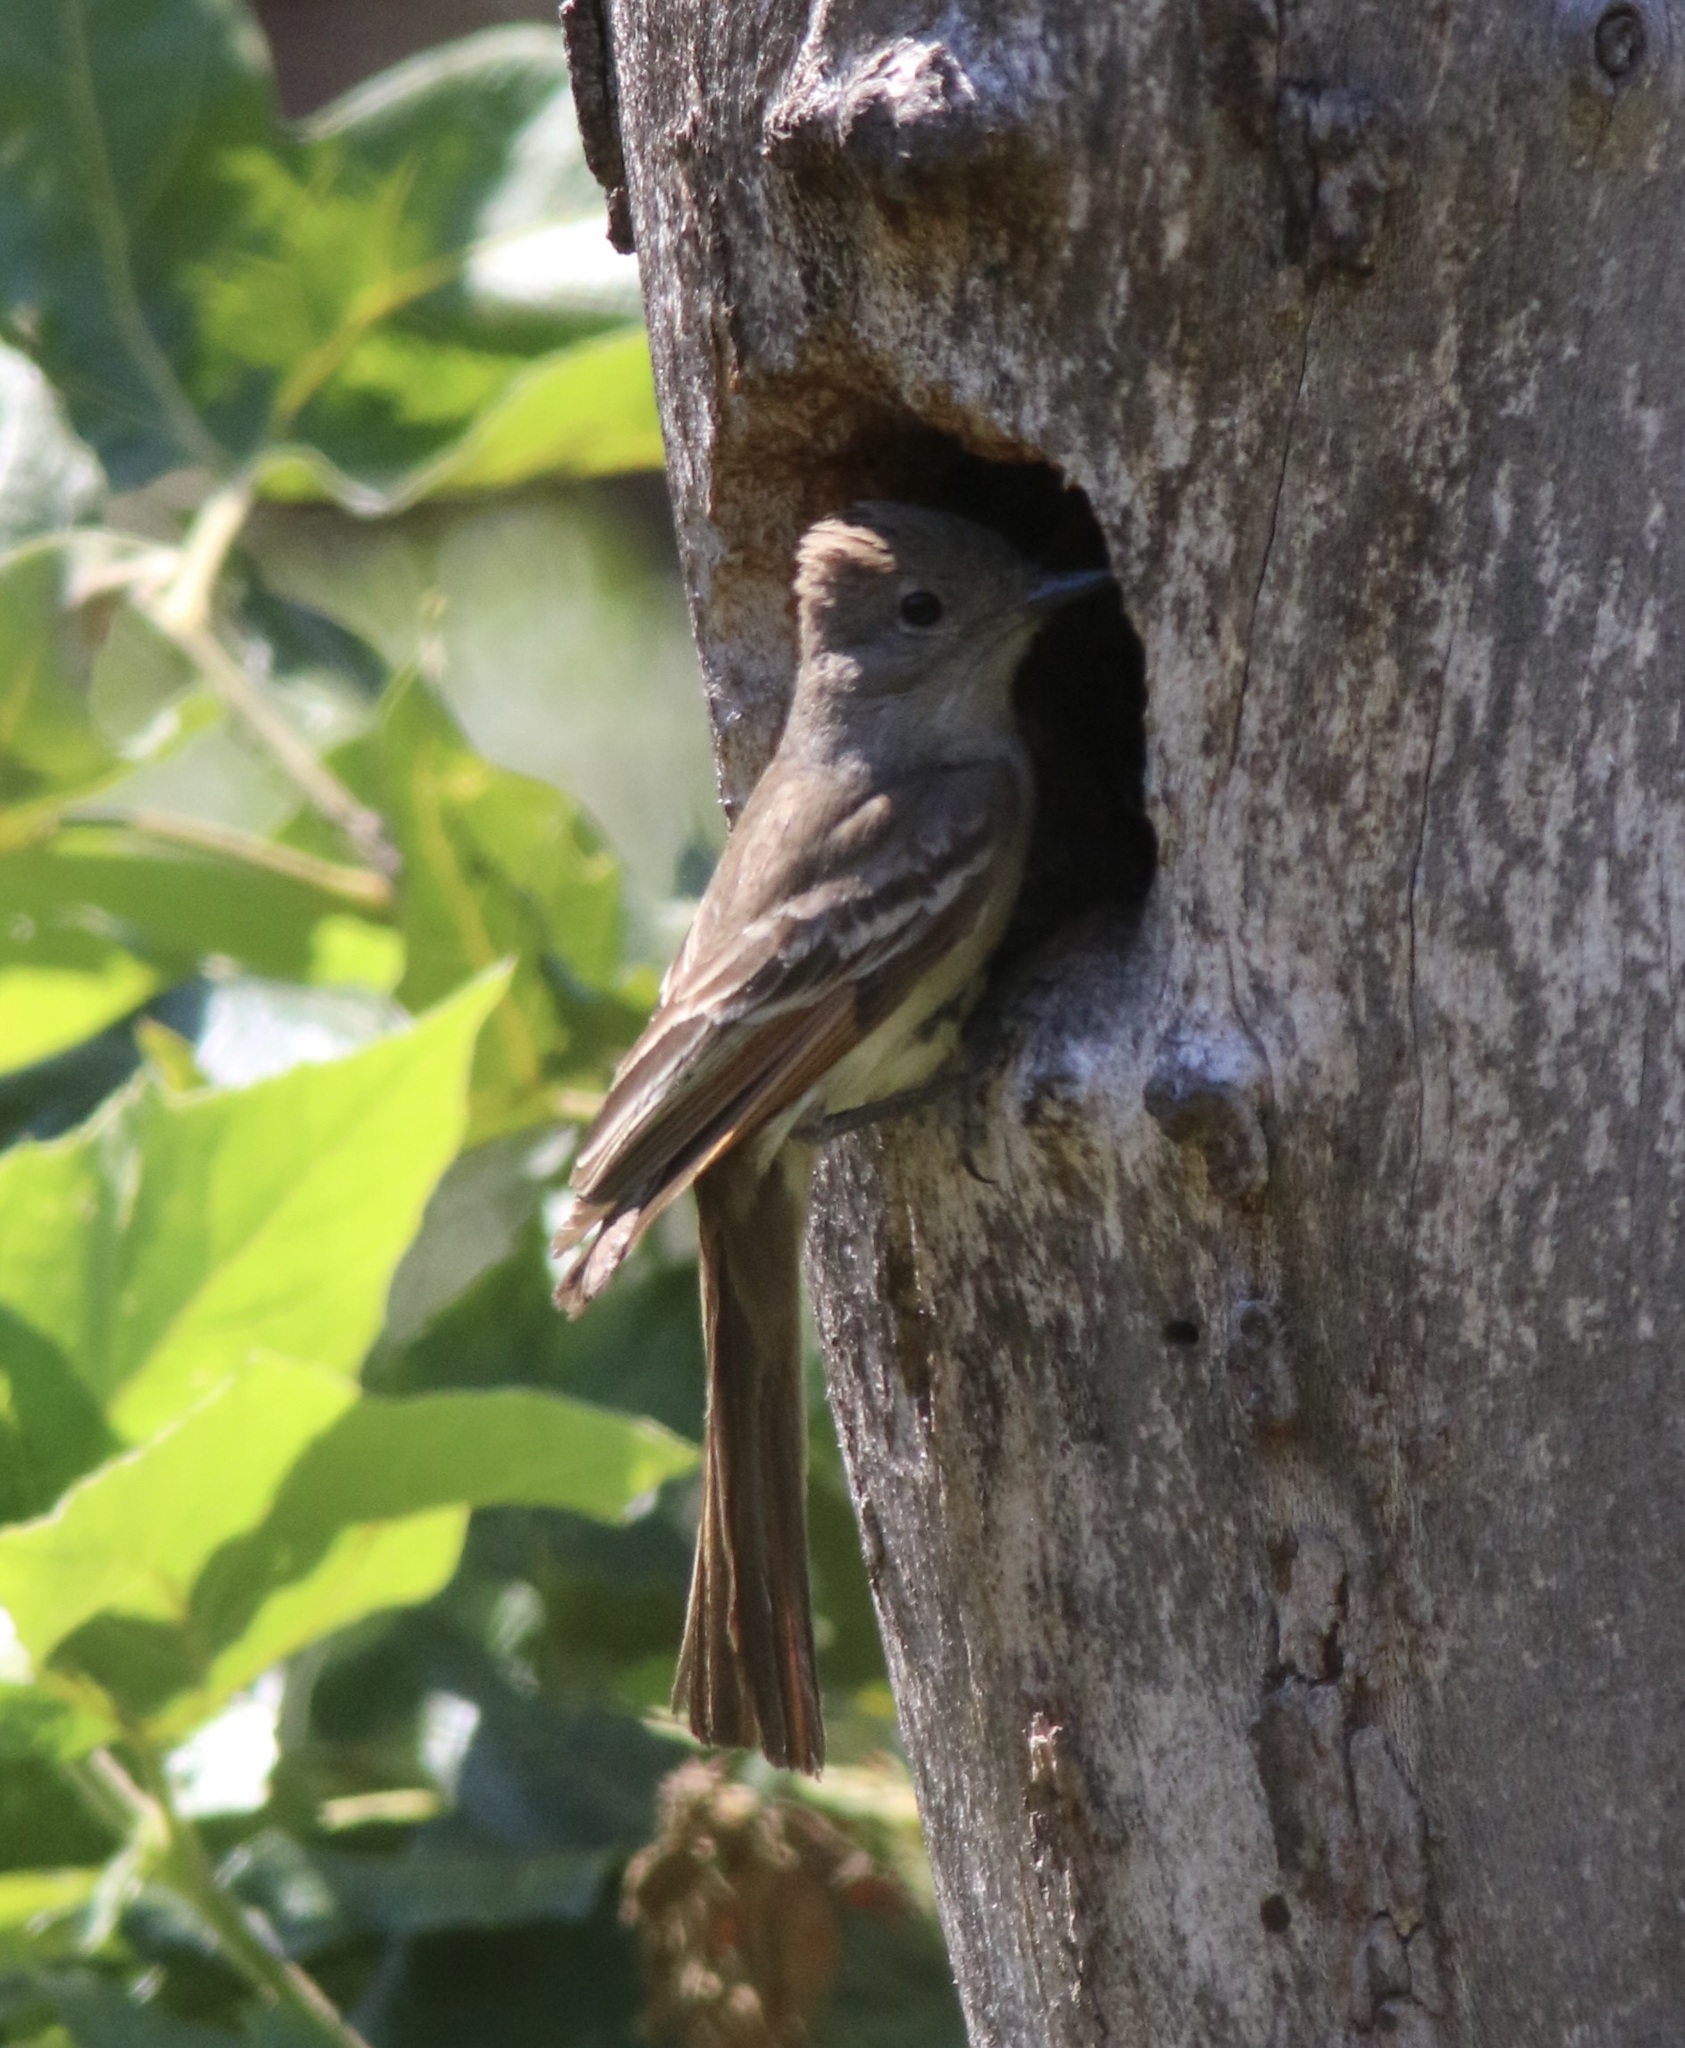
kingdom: Animalia
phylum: Chordata
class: Aves
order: Passeriformes
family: Tyrannidae
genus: Myiarchus
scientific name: Myiarchus cinerascens
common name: Ash-throated flycatcher
